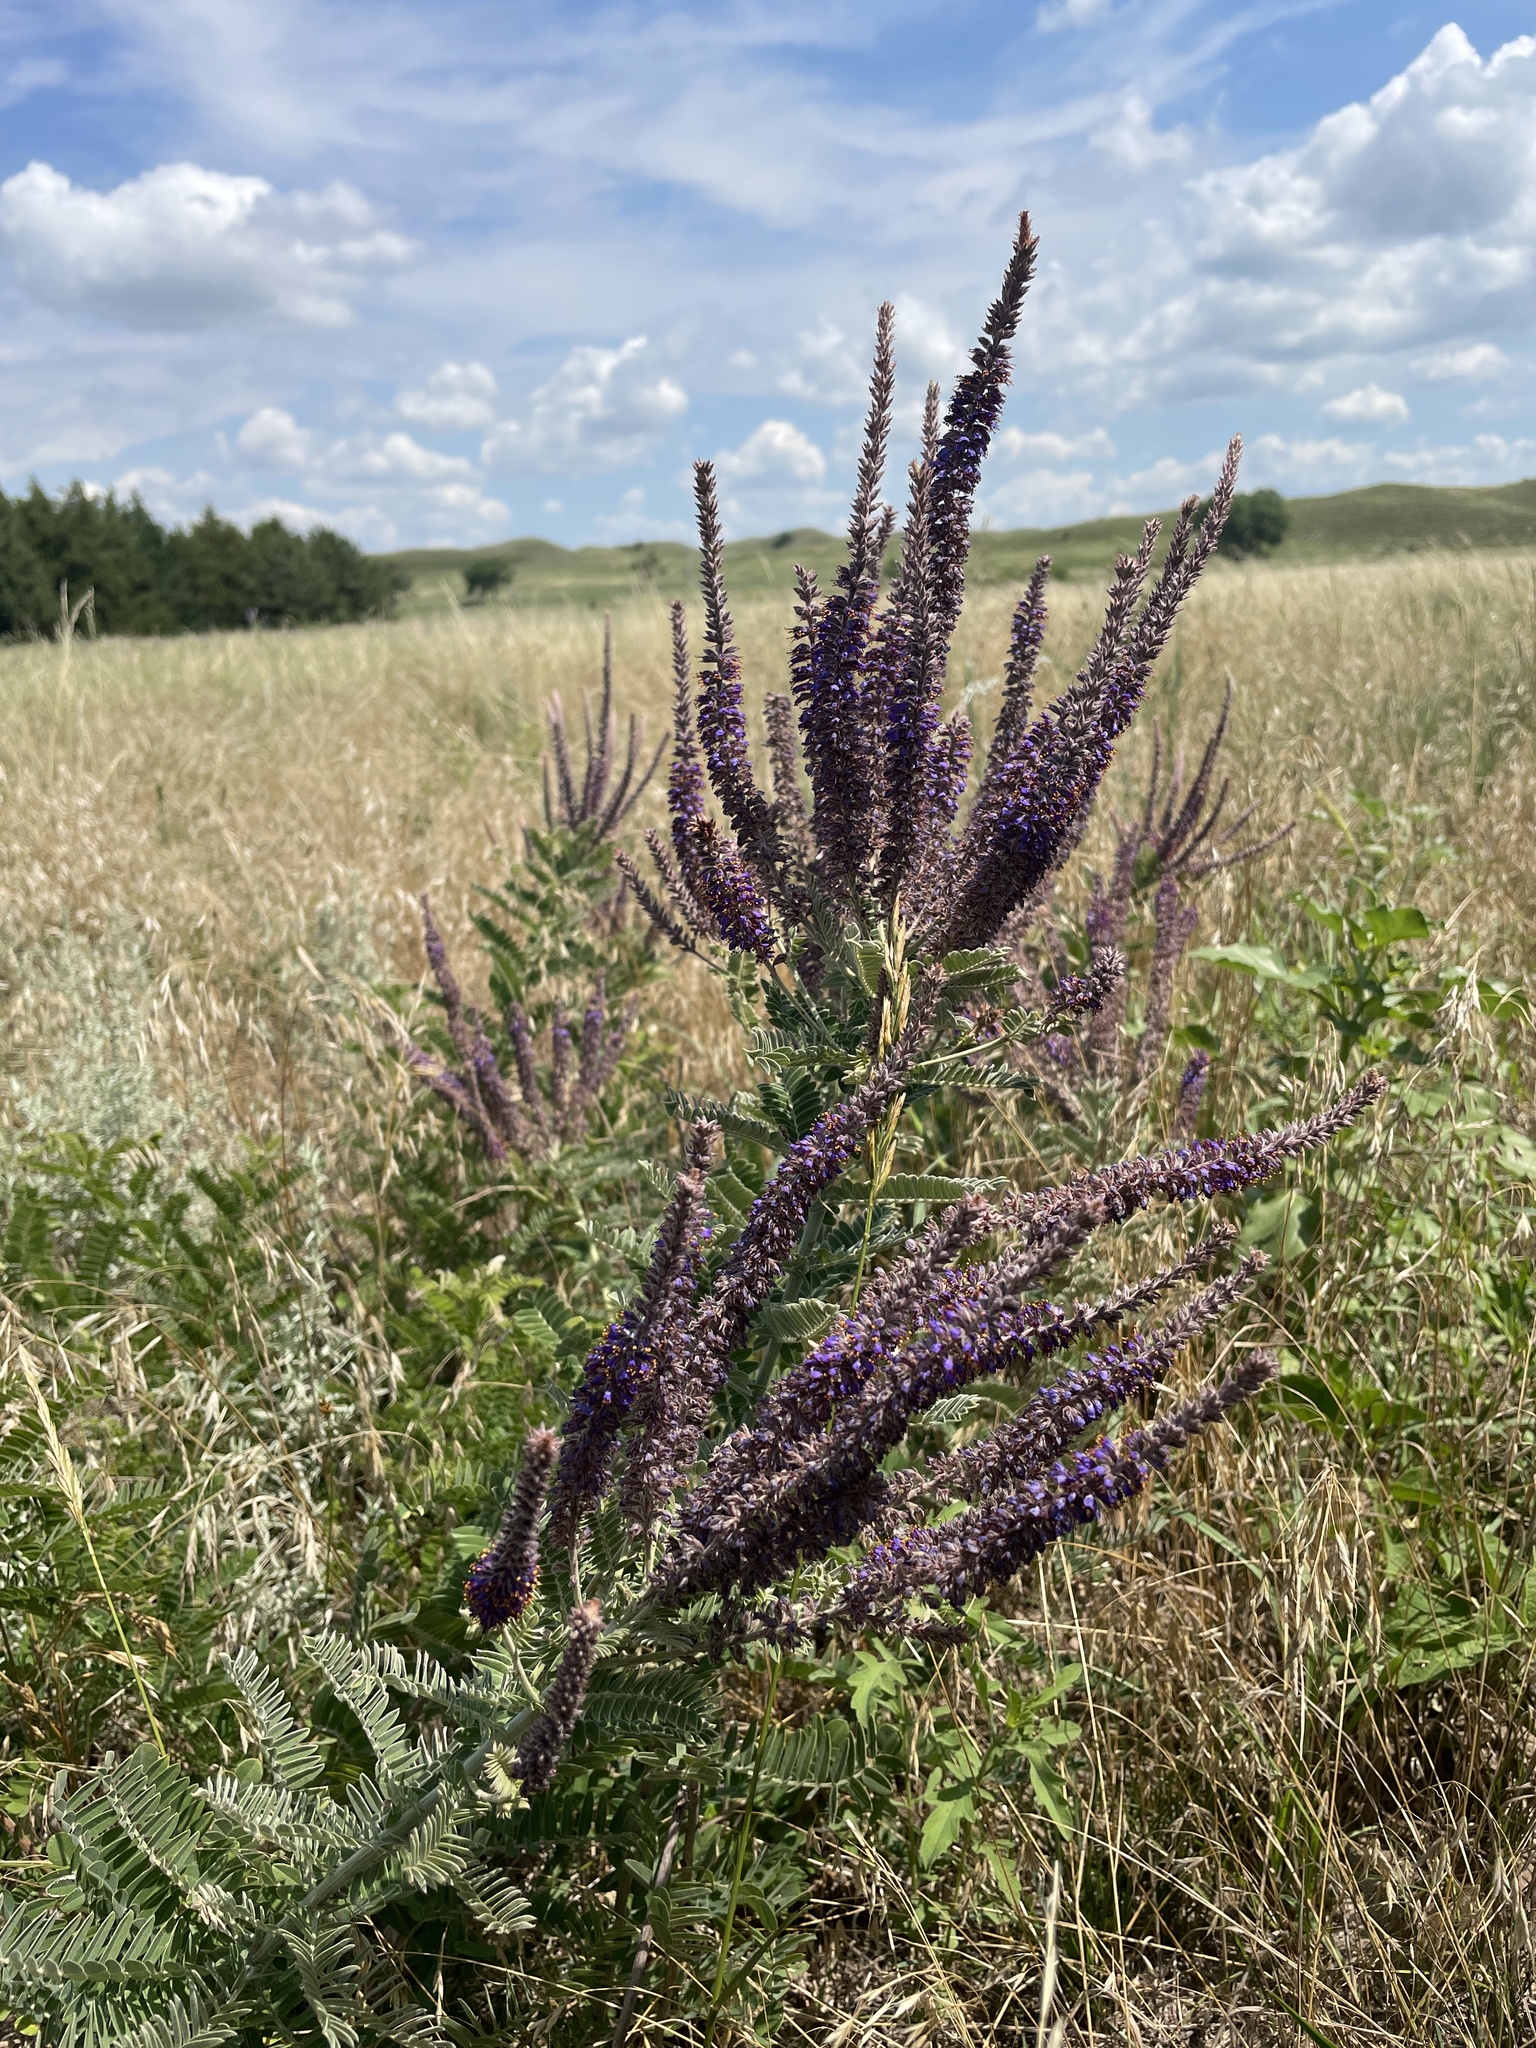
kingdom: Plantae
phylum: Tracheophyta
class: Magnoliopsida
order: Fabales
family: Fabaceae
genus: Amorpha
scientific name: Amorpha canescens
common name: Leadplant
